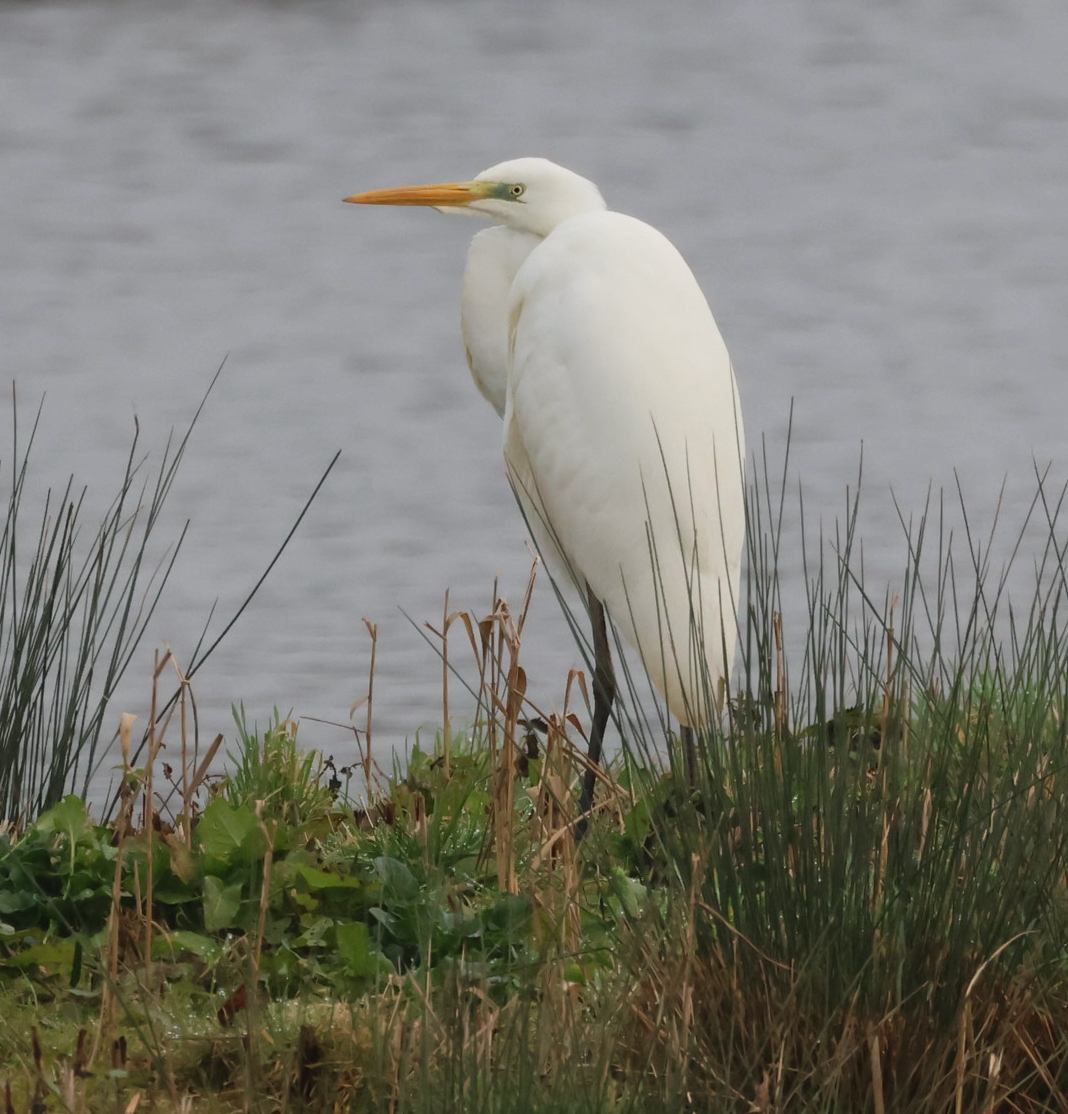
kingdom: Animalia
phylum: Chordata
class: Aves
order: Pelecaniformes
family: Ardeidae
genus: Ardea
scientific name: Ardea alba
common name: Great egret
